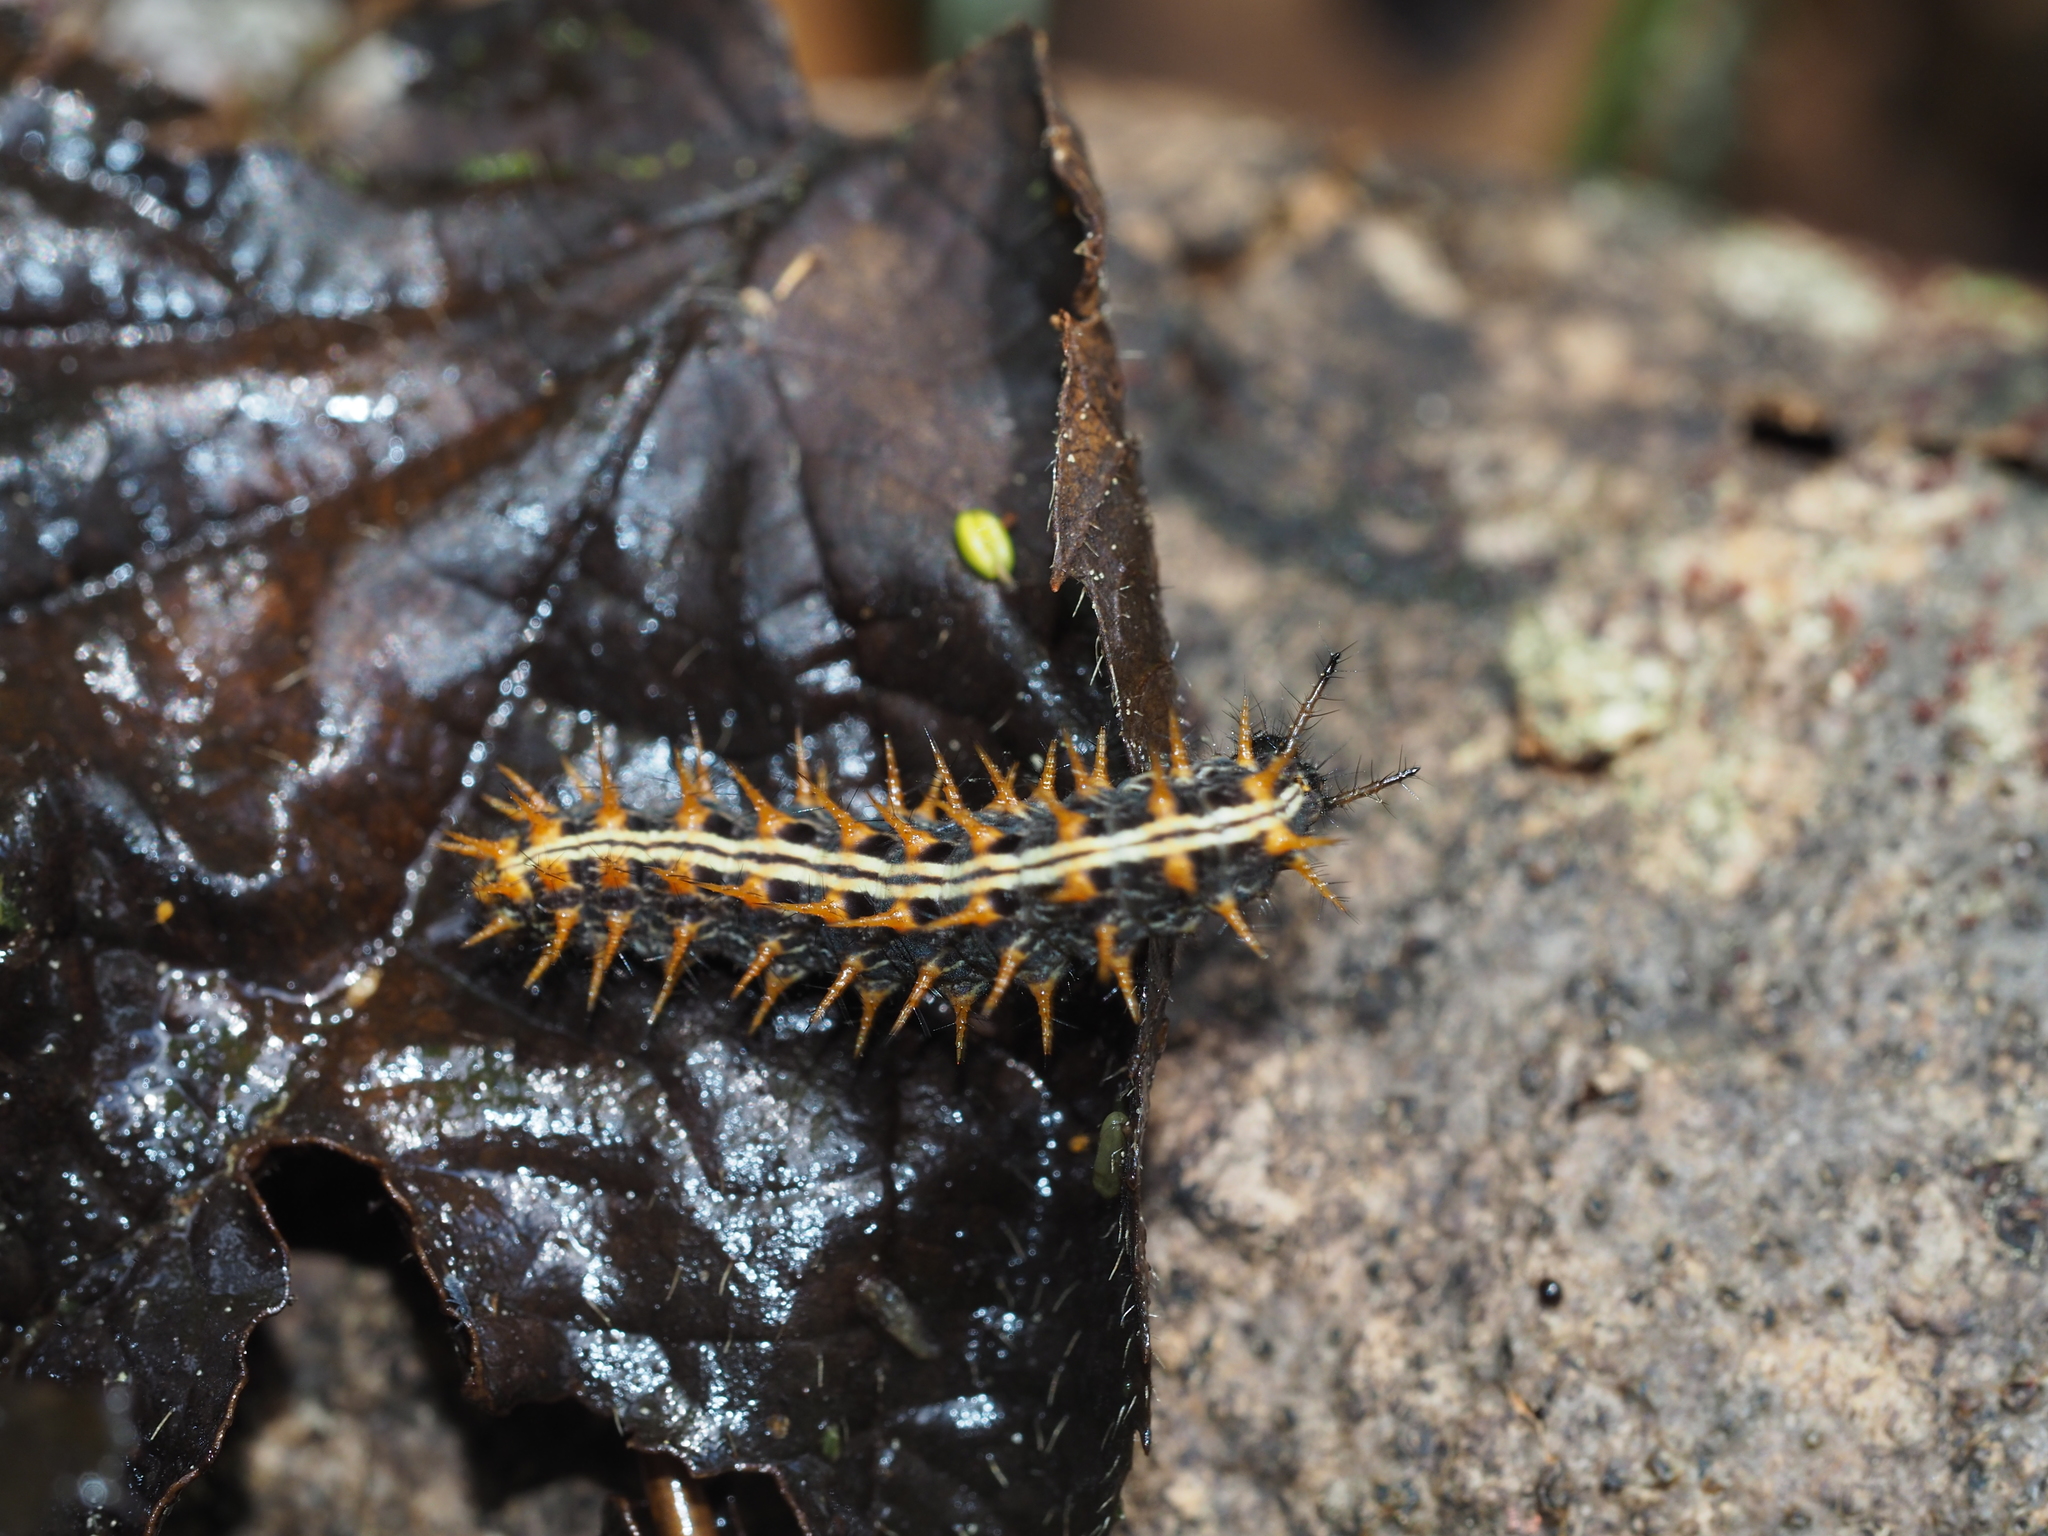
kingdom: Animalia
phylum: Arthropoda
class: Insecta
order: Lepidoptera
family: Nymphalidae
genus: Argynnis
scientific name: Argynnis paphia
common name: Silver-washed fritillary
